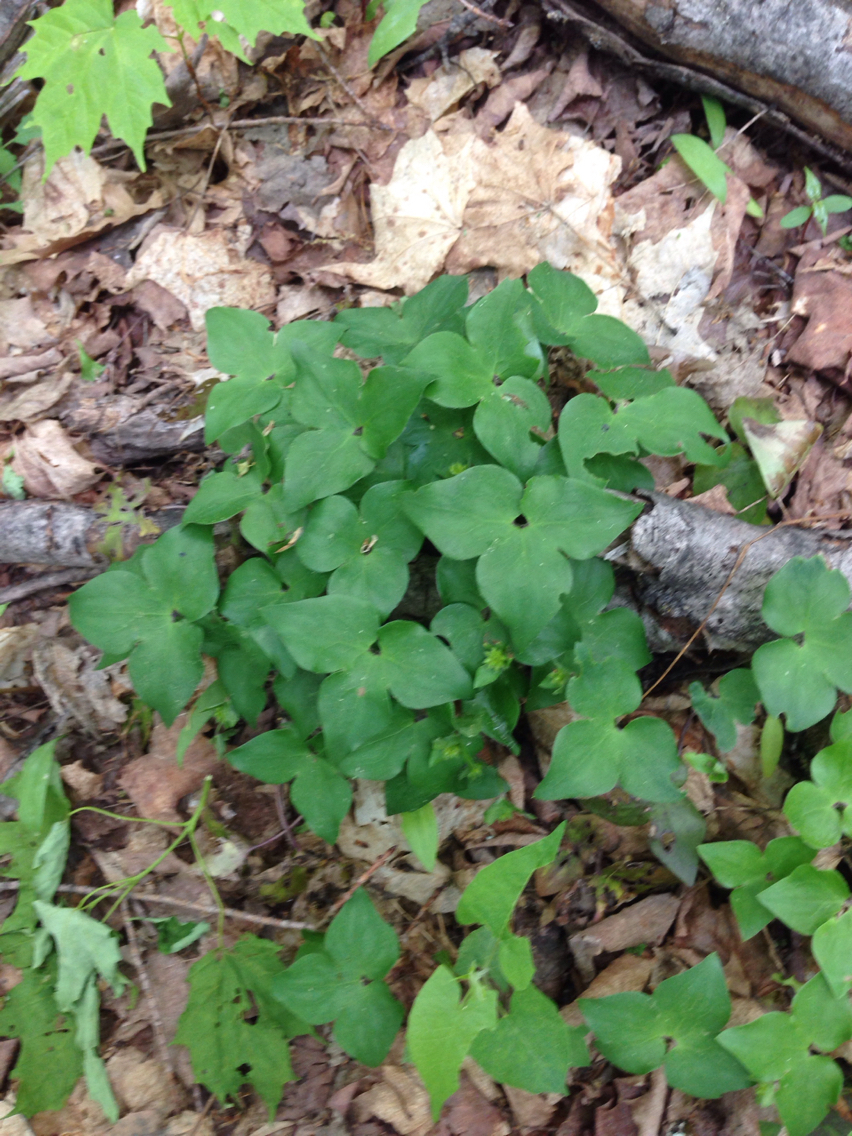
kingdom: Plantae
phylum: Tracheophyta
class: Magnoliopsida
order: Ranunculales
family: Ranunculaceae
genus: Hepatica
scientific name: Hepatica acutiloba
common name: Sharp-lobed hepatica
